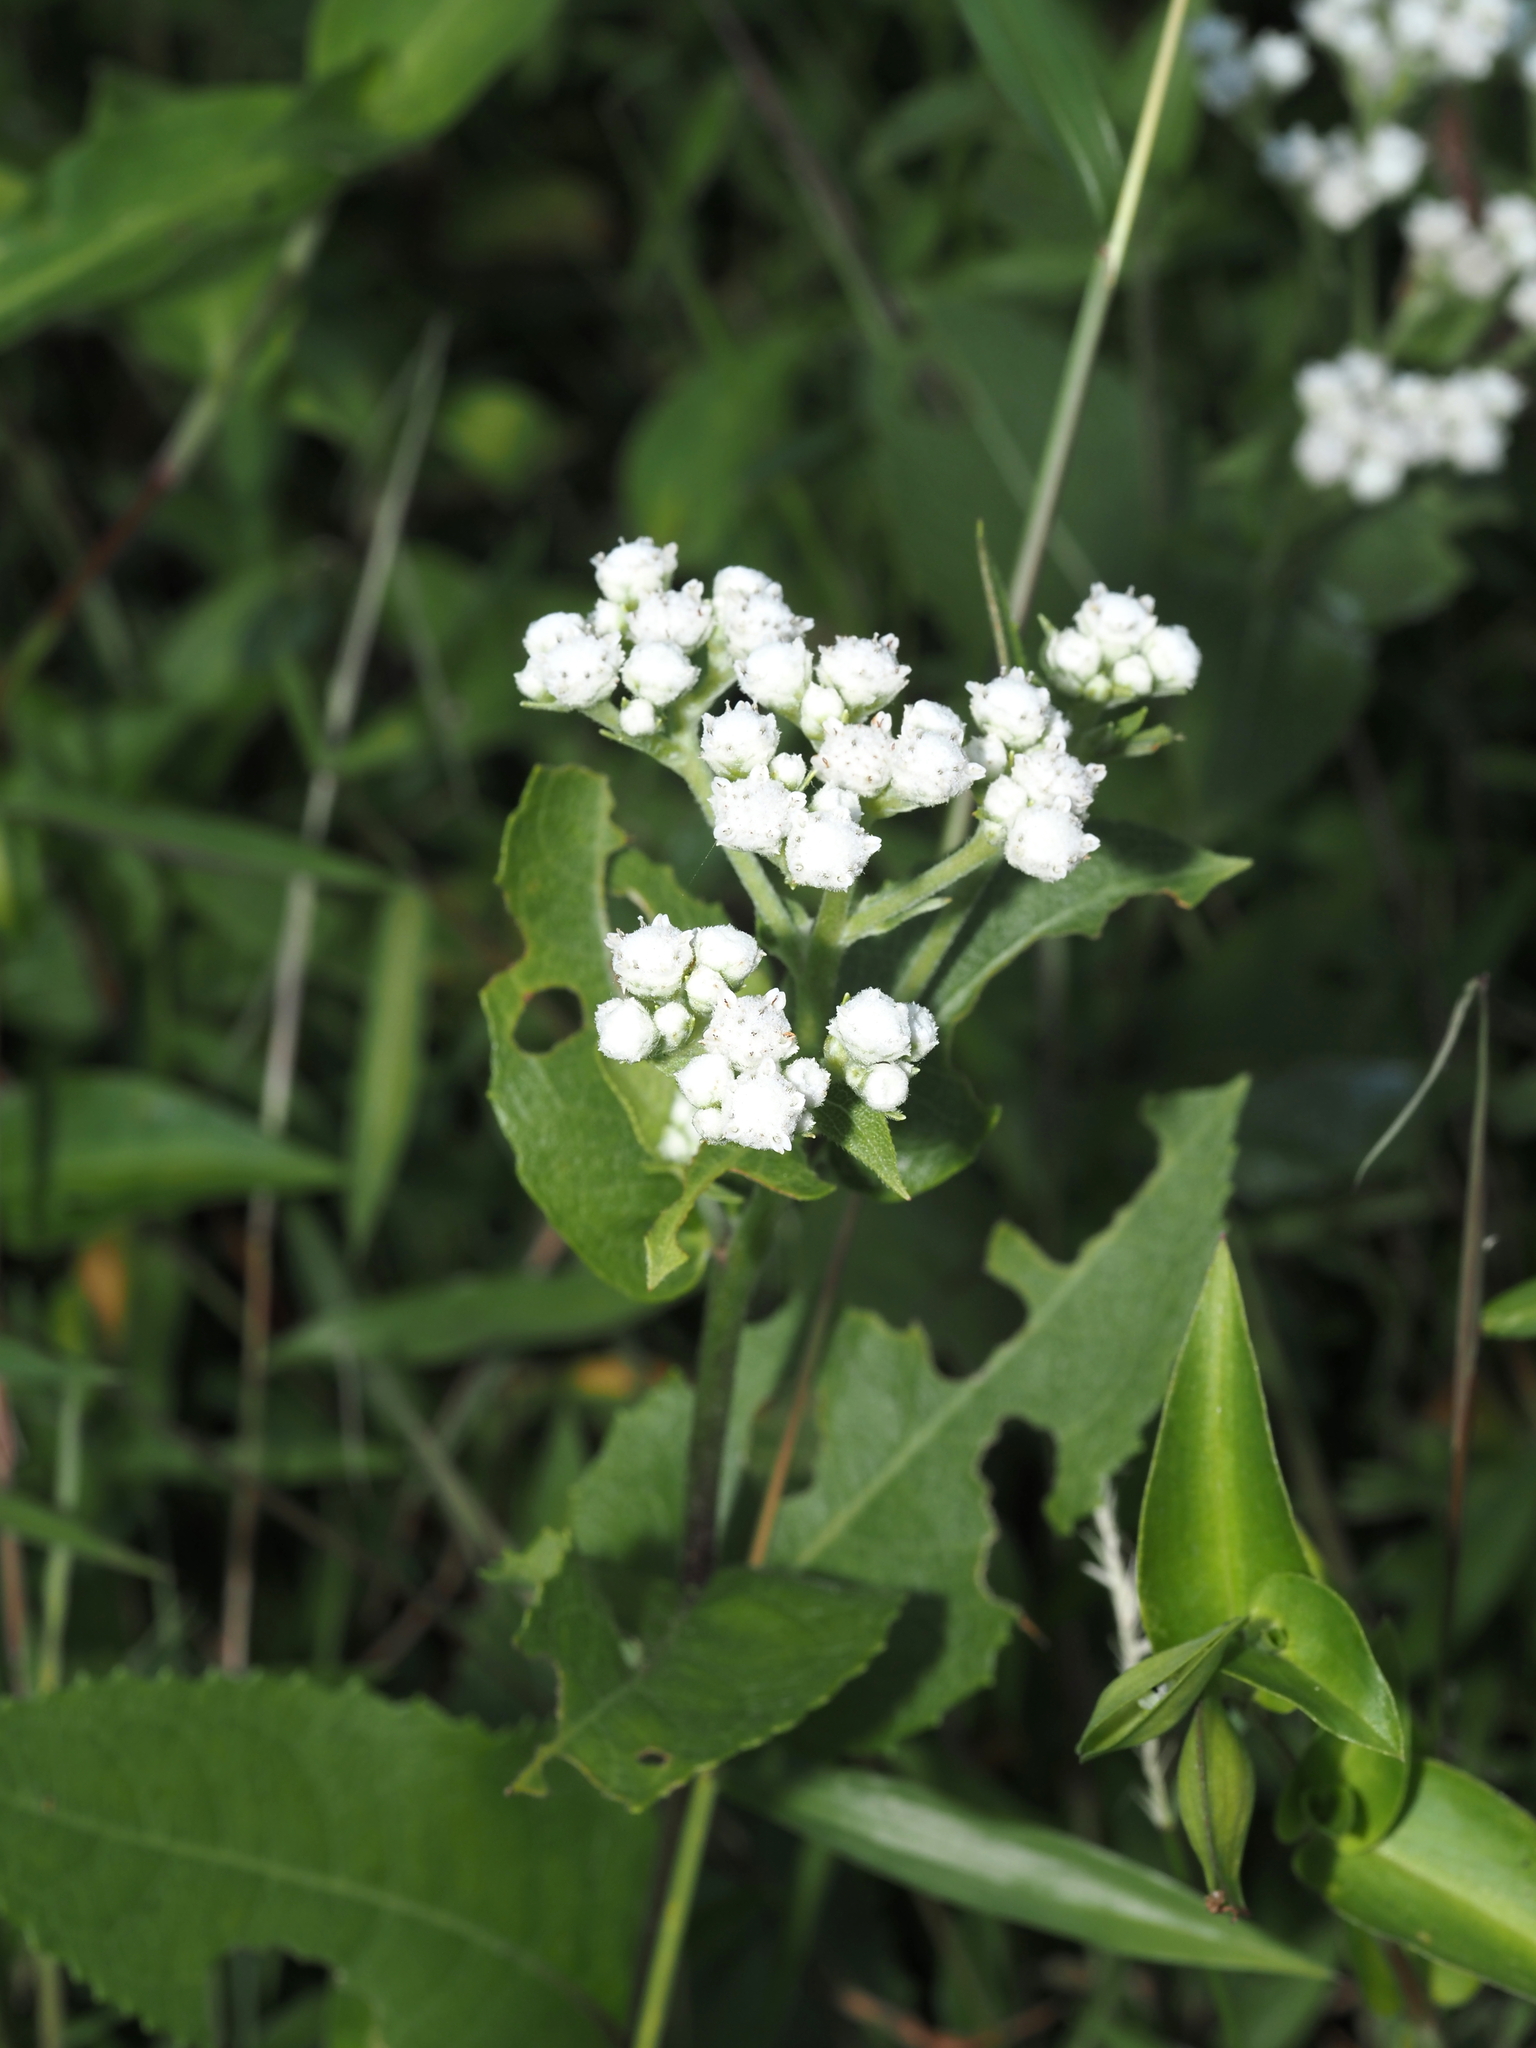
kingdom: Plantae
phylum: Tracheophyta
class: Magnoliopsida
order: Asterales
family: Asteraceae
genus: Parthenium
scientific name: Parthenium integrifolium
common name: American feverfew
